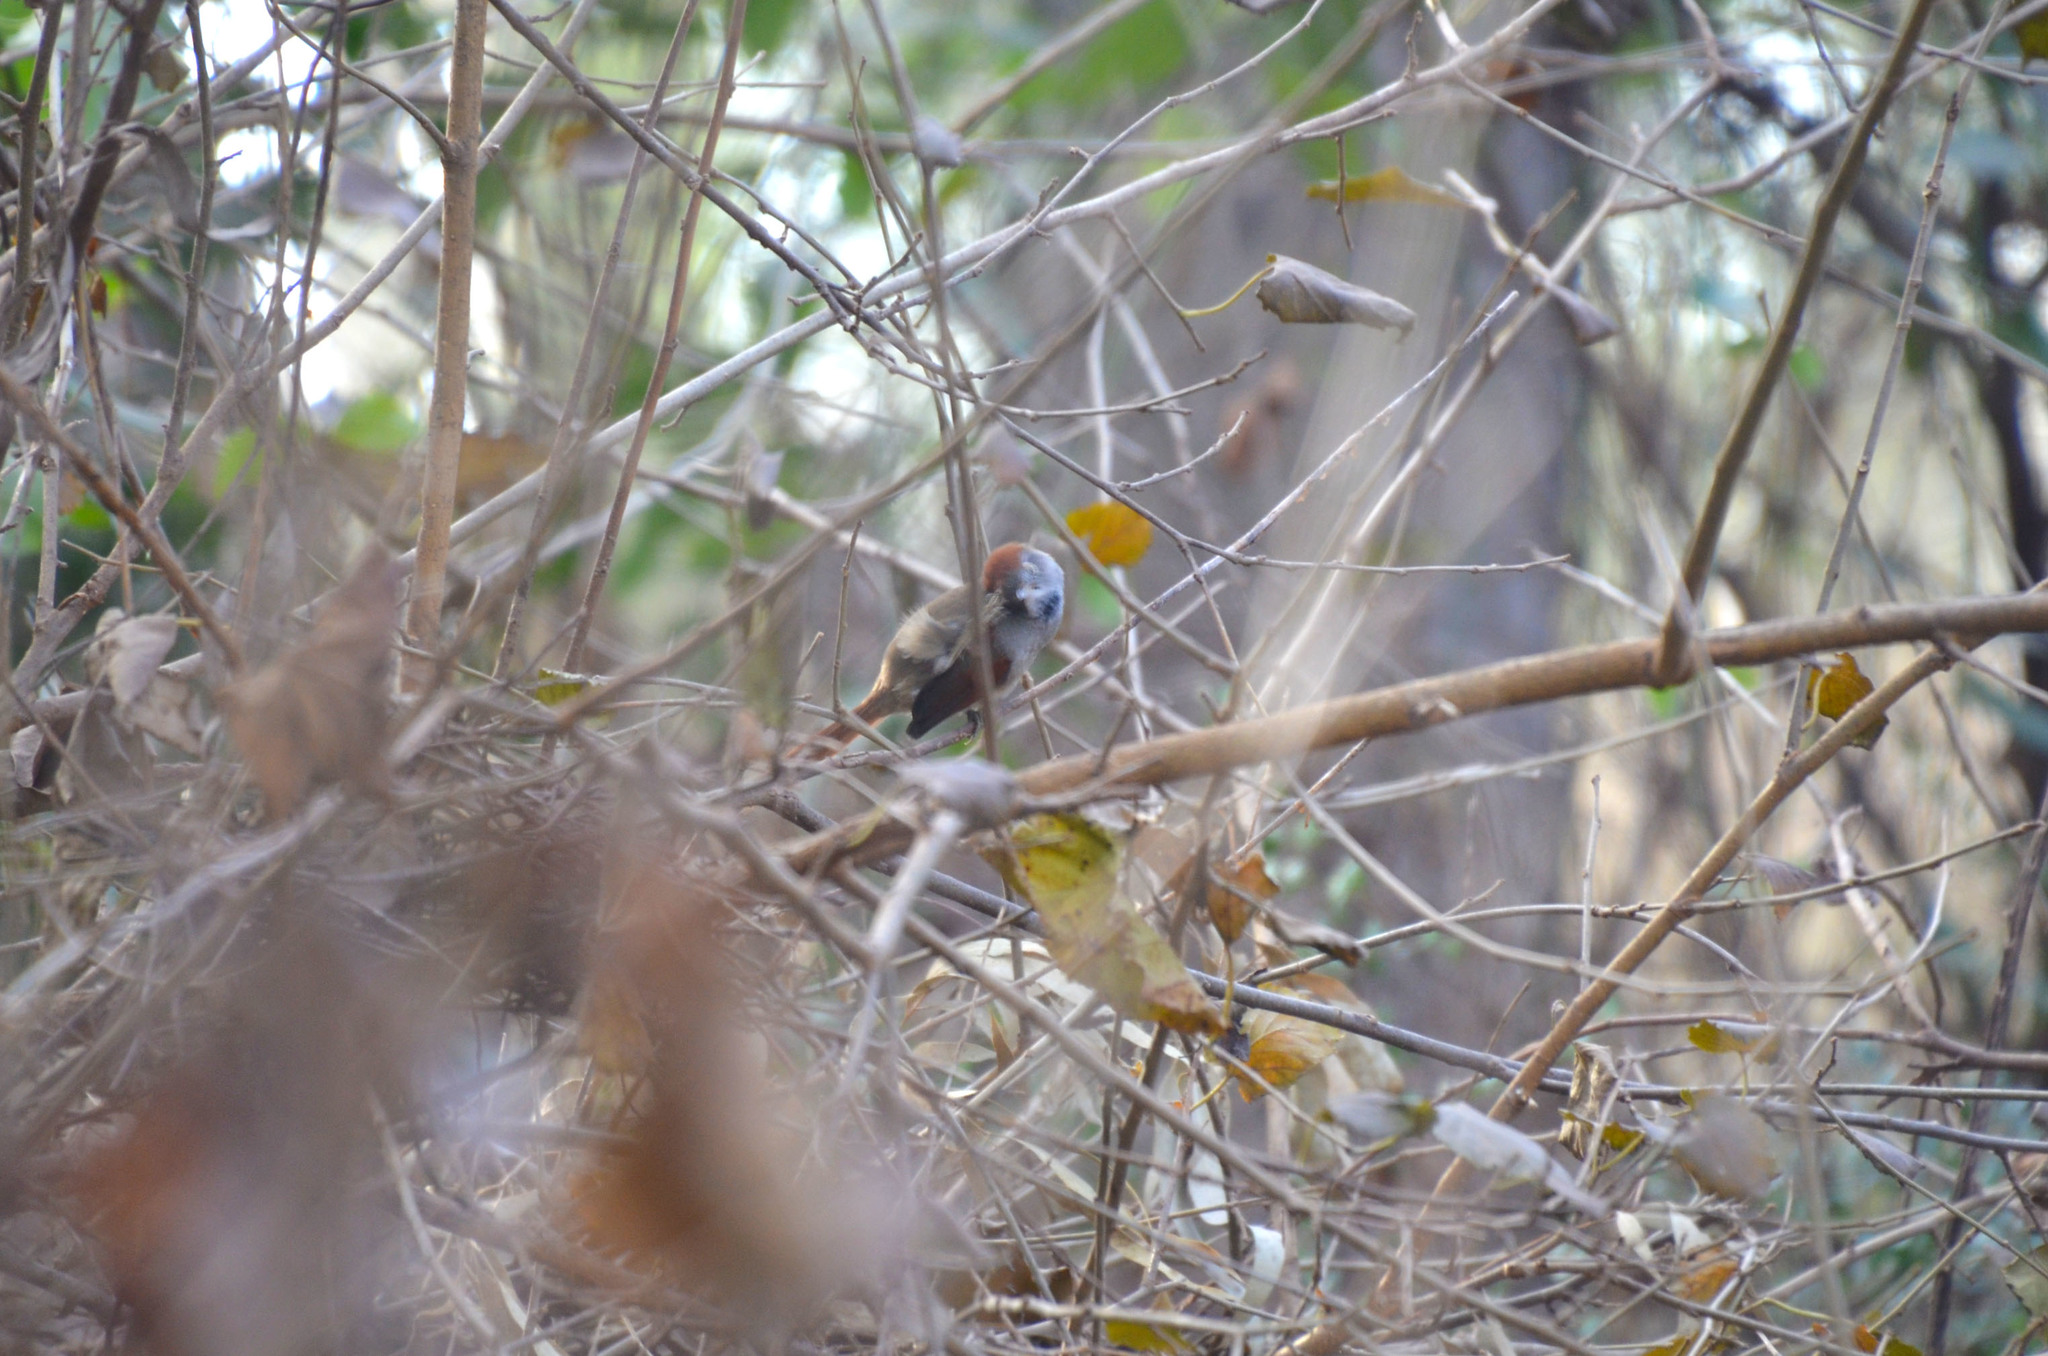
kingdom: Animalia
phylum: Chordata
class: Aves
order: Passeriformes
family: Furnariidae
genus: Synallaxis
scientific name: Synallaxis frontalis
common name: Sooty-fronted spinetail
